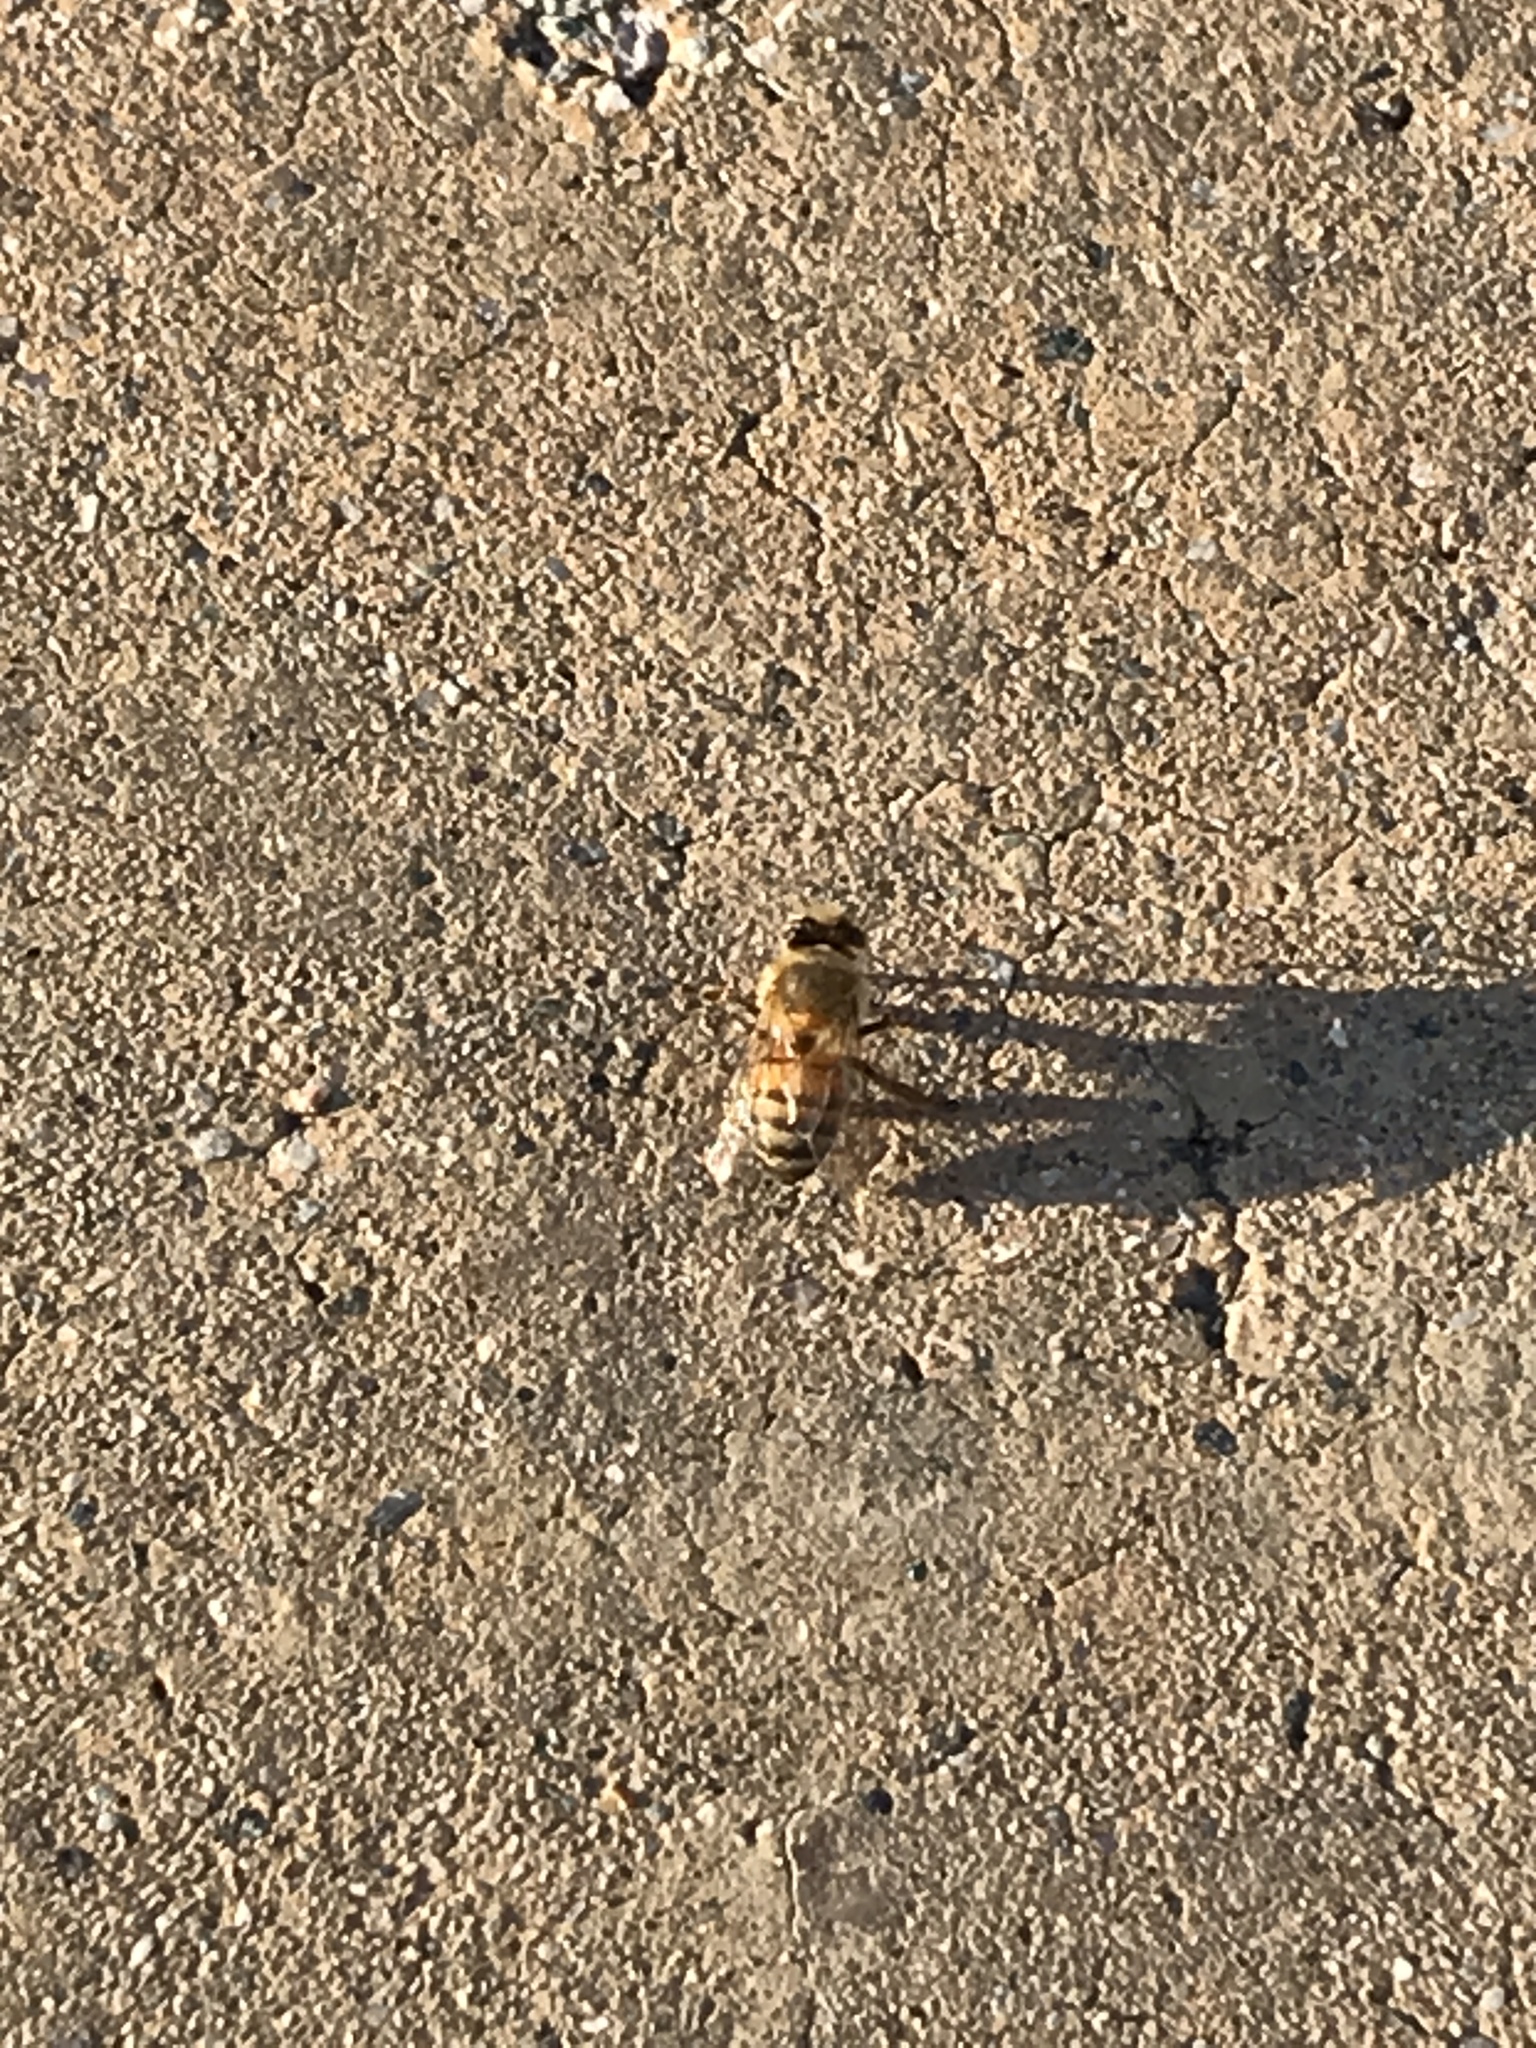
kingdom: Animalia
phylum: Arthropoda
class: Insecta
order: Hymenoptera
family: Apidae
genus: Apis
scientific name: Apis mellifera
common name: Honey bee
